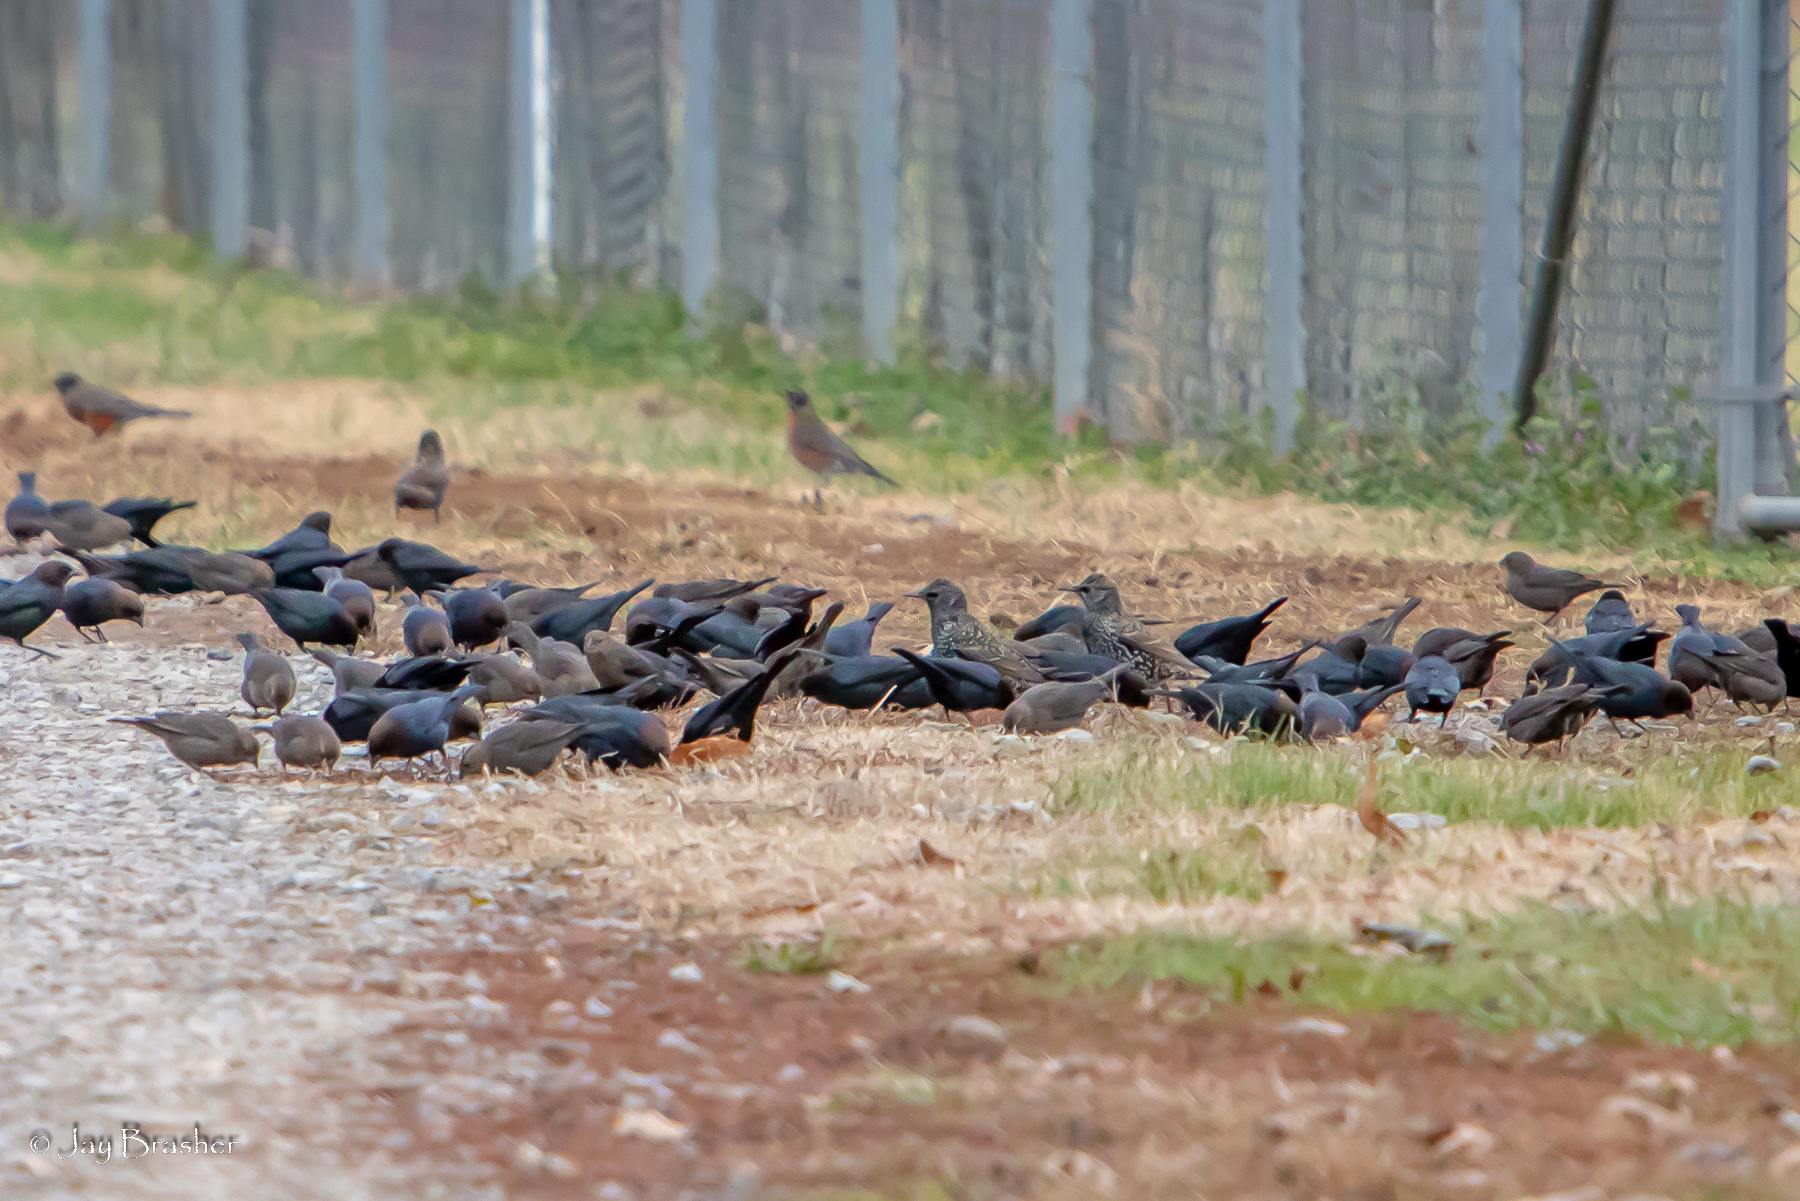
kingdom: Animalia
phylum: Chordata
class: Aves
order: Passeriformes
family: Icteridae
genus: Molothrus
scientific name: Molothrus ater
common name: Brown-headed cowbird
